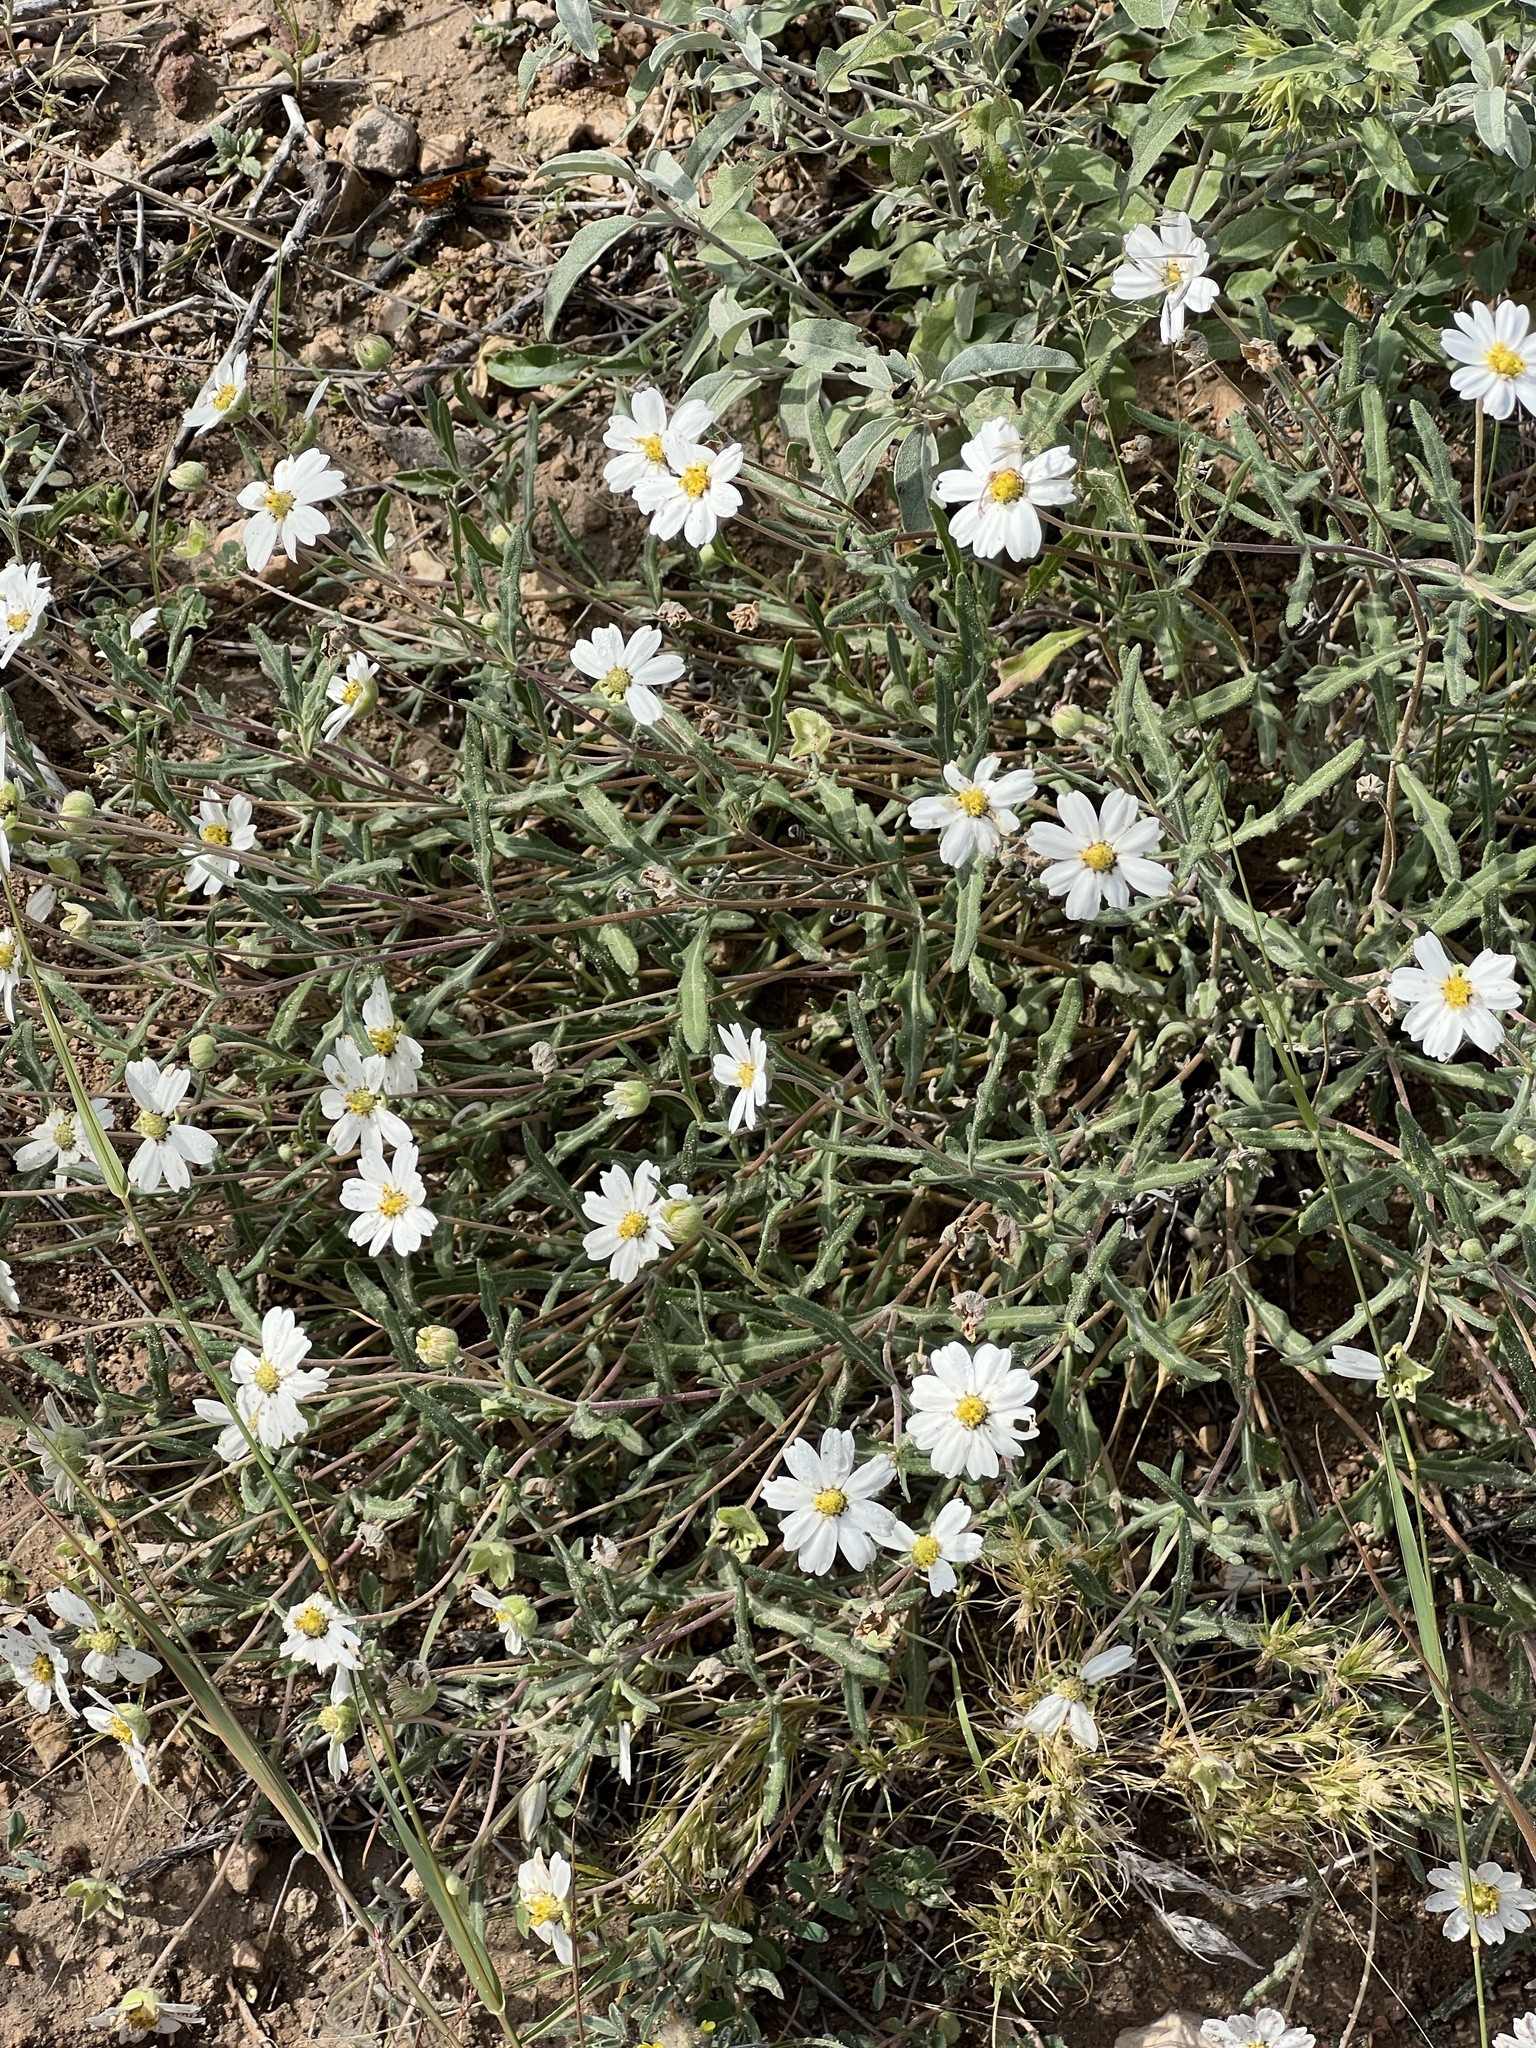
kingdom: Plantae
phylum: Tracheophyta
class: Magnoliopsida
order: Asterales
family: Asteraceae
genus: Melampodium
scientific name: Melampodium leucanthum
